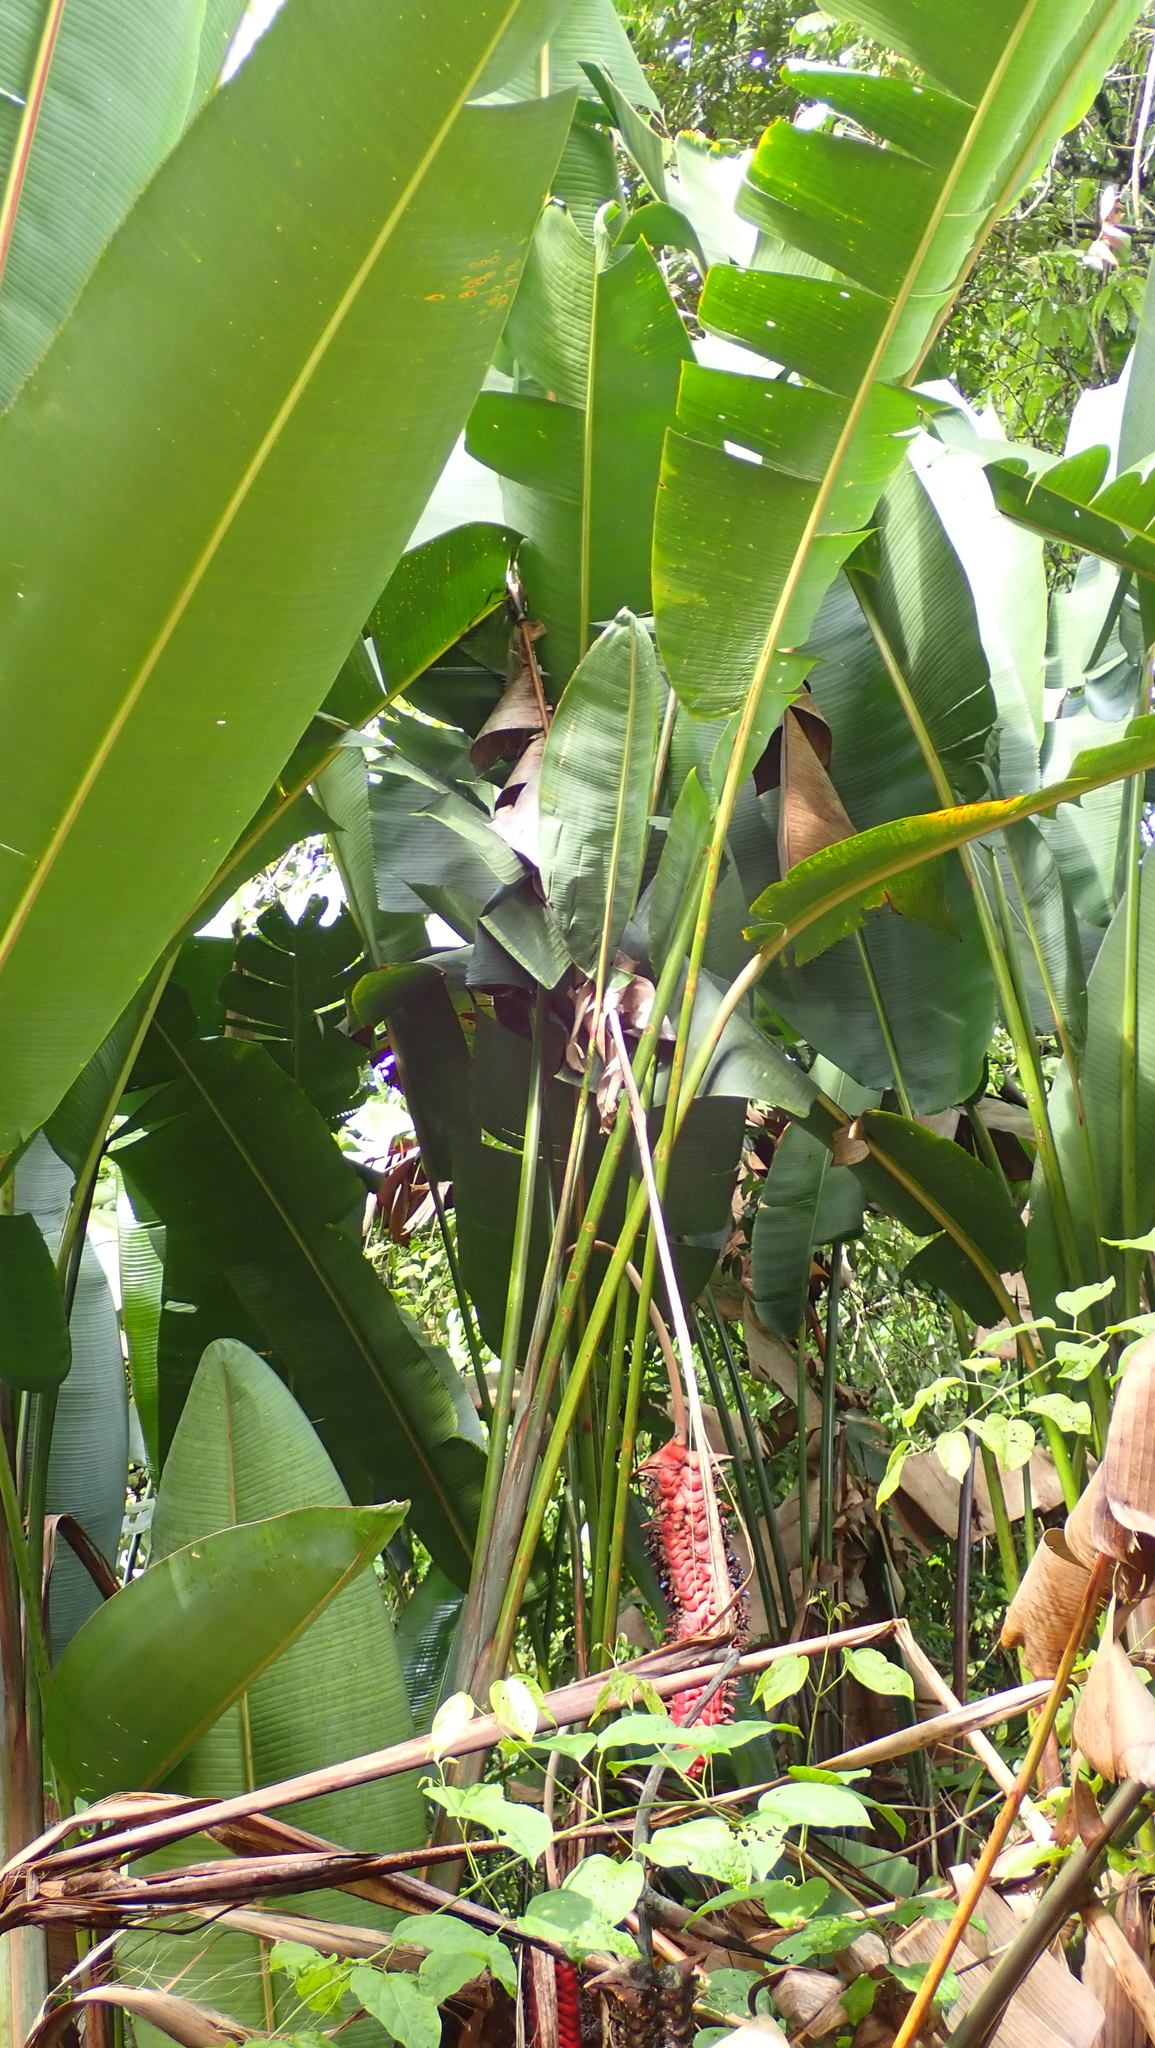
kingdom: Plantae
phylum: Tracheophyta
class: Liliopsida
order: Zingiberales
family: Heliconiaceae
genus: Heliconia
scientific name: Heliconia mariae
